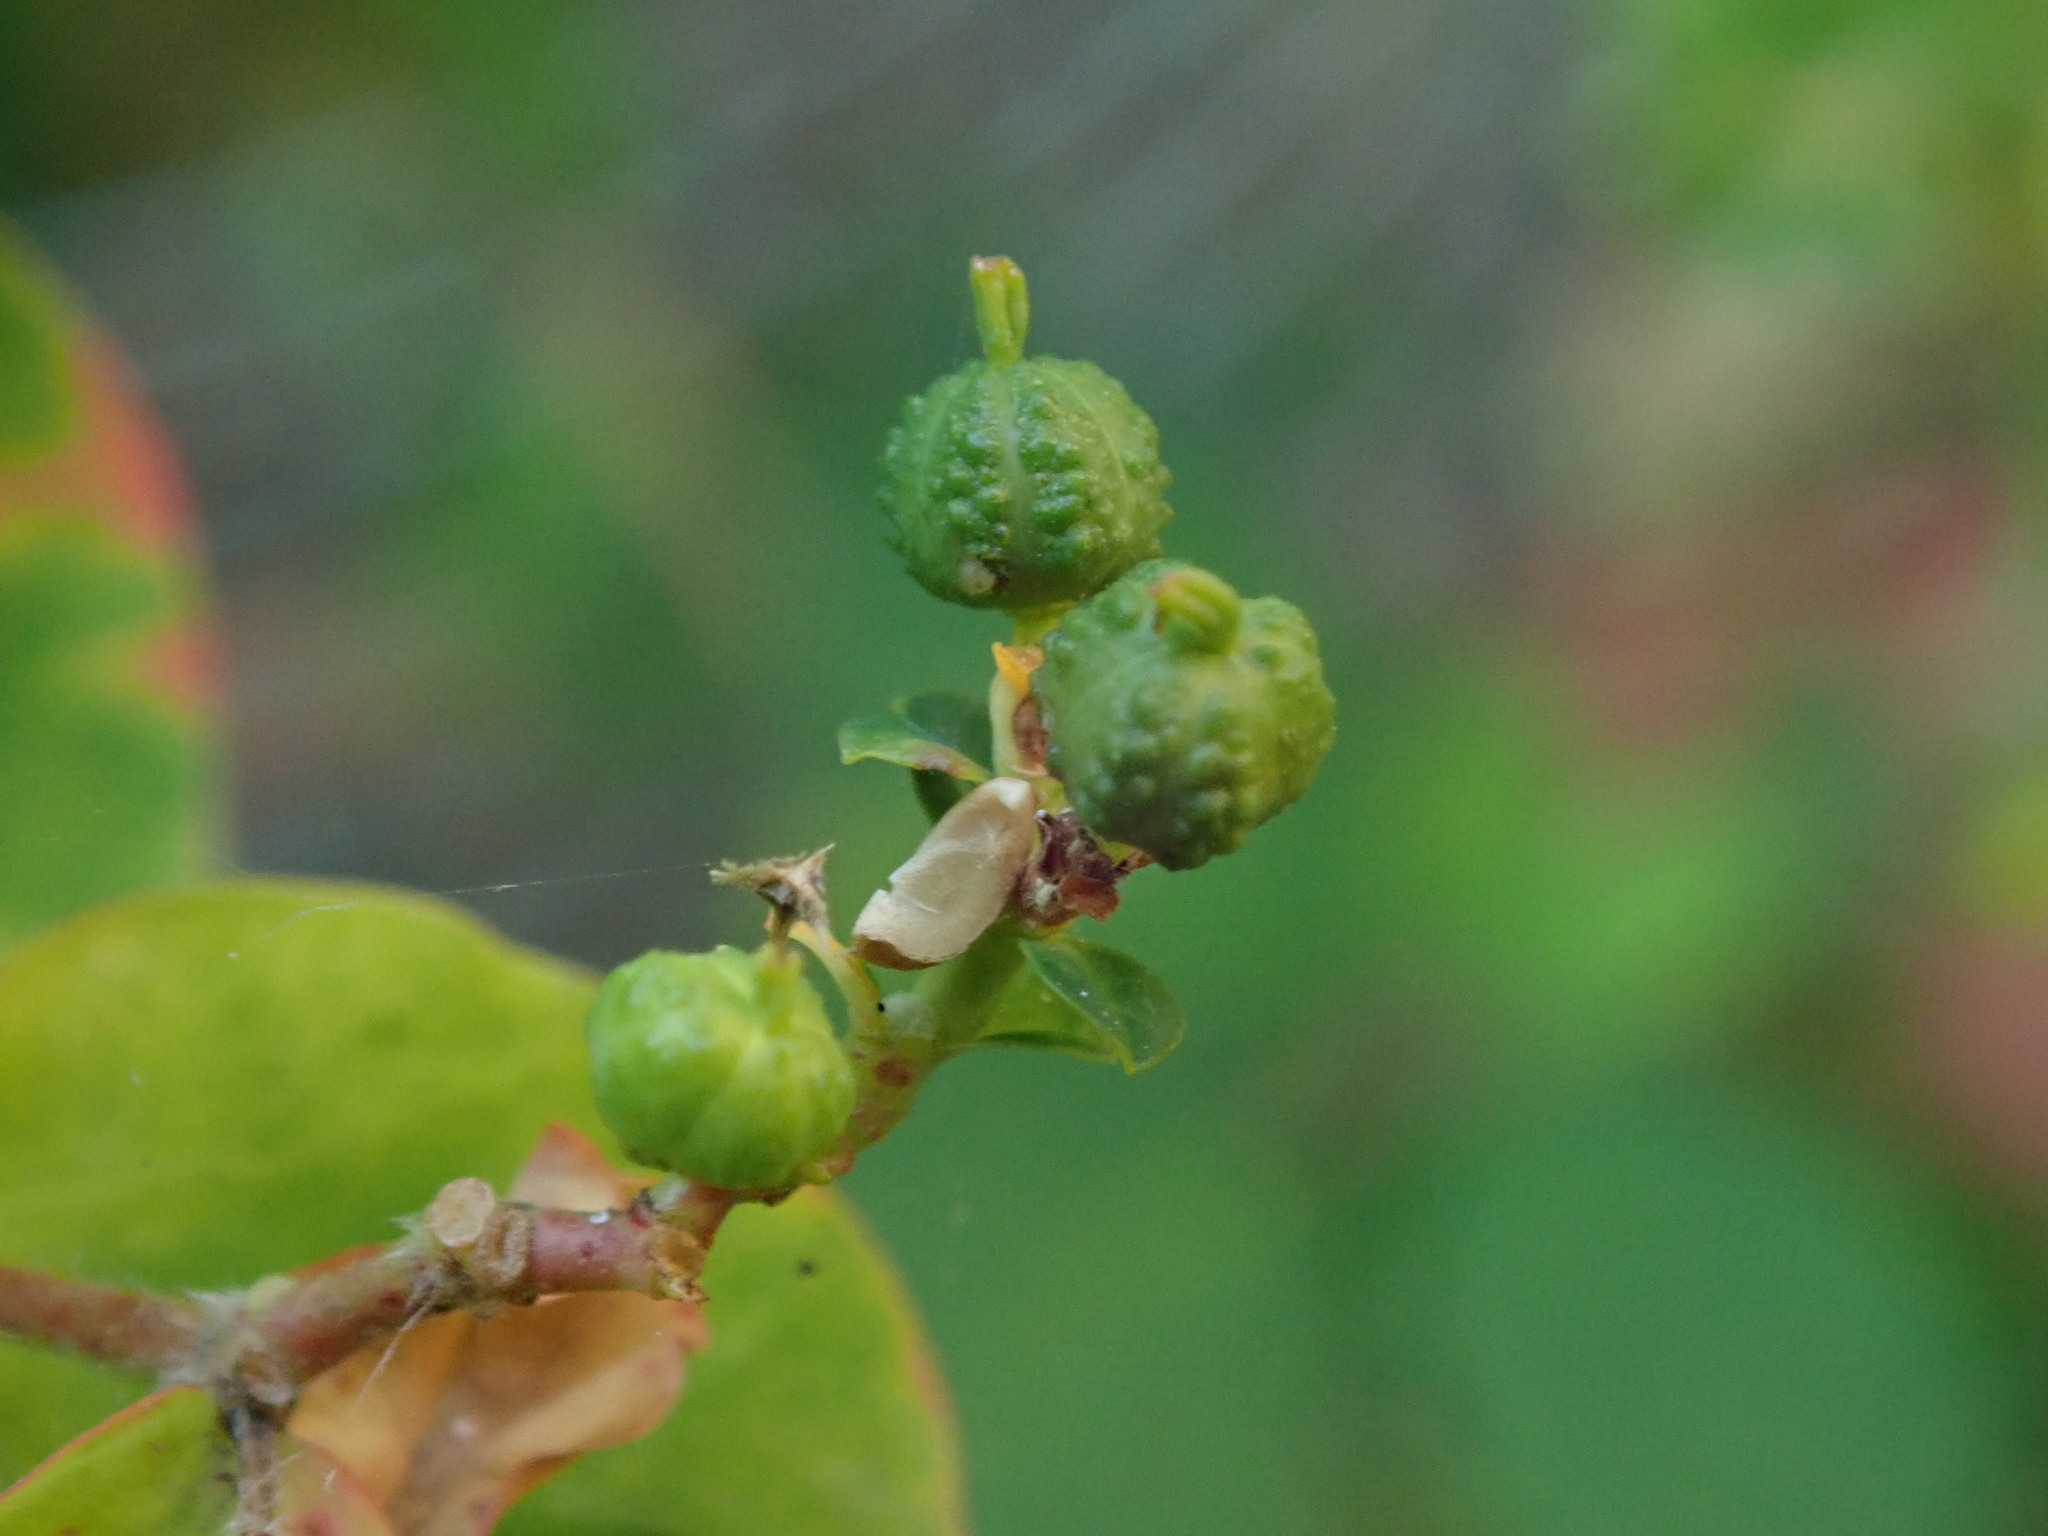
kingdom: Plantae
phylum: Tracheophyta
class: Magnoliopsida
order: Malpighiales
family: Euphorbiaceae
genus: Euphorbia
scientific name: Euphorbia oblongata
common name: Balkan spurge
